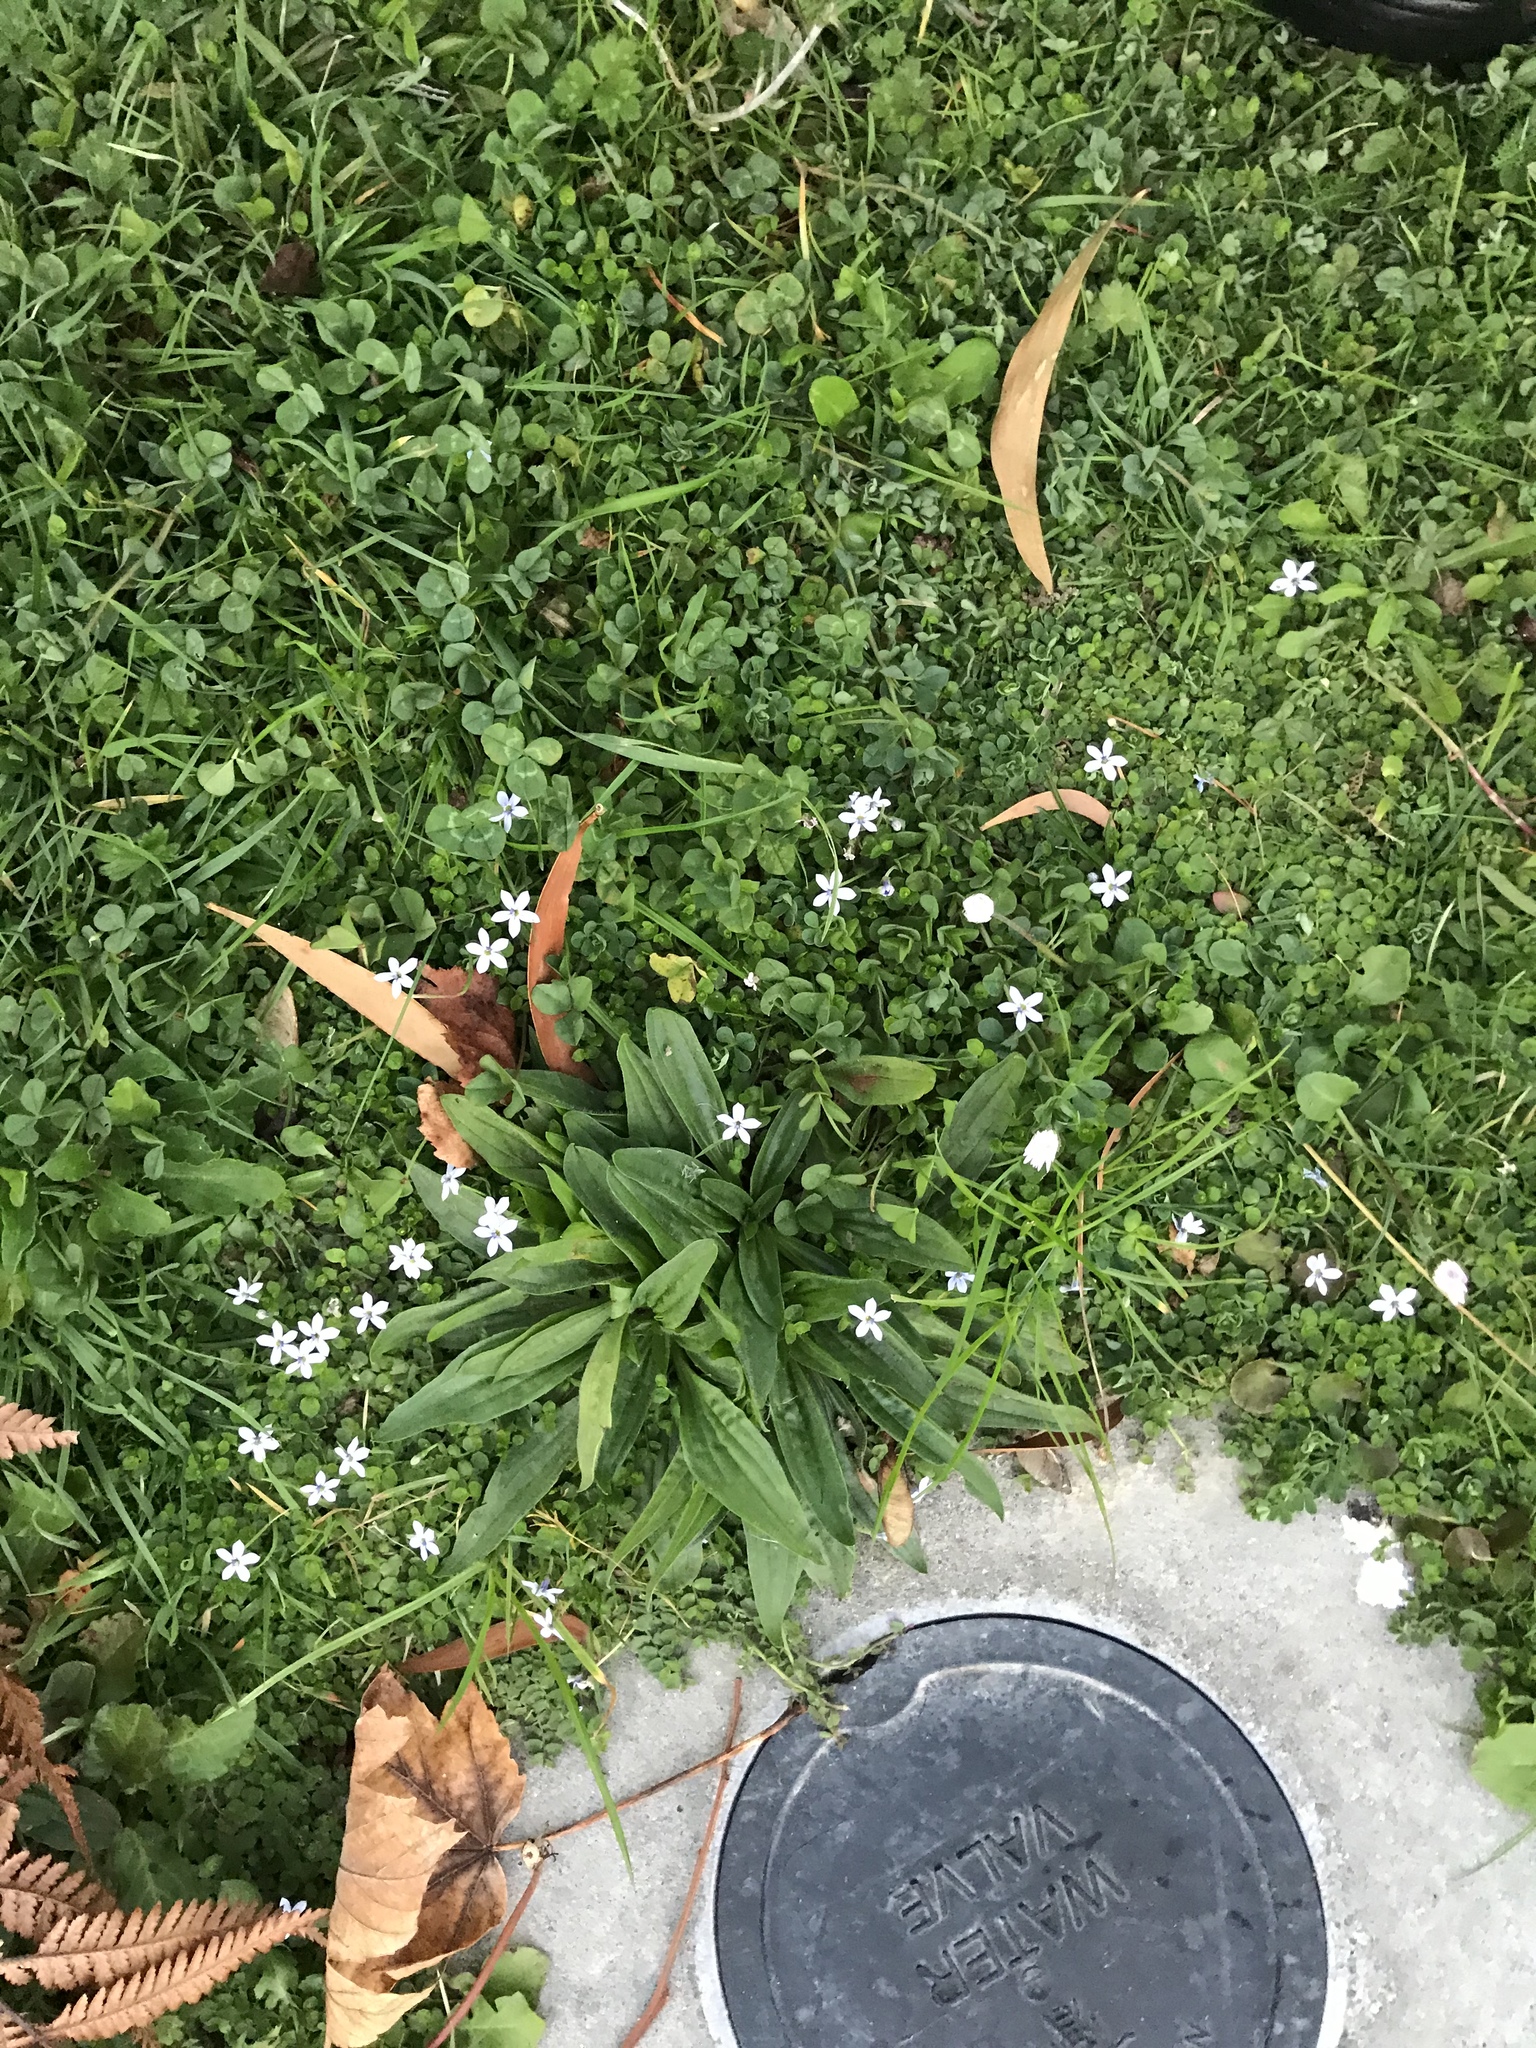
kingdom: Plantae
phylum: Tracheophyta
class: Magnoliopsida
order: Asterales
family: Campanulaceae
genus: Lobelia
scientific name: Lobelia pedunculata
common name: Matted pratia
